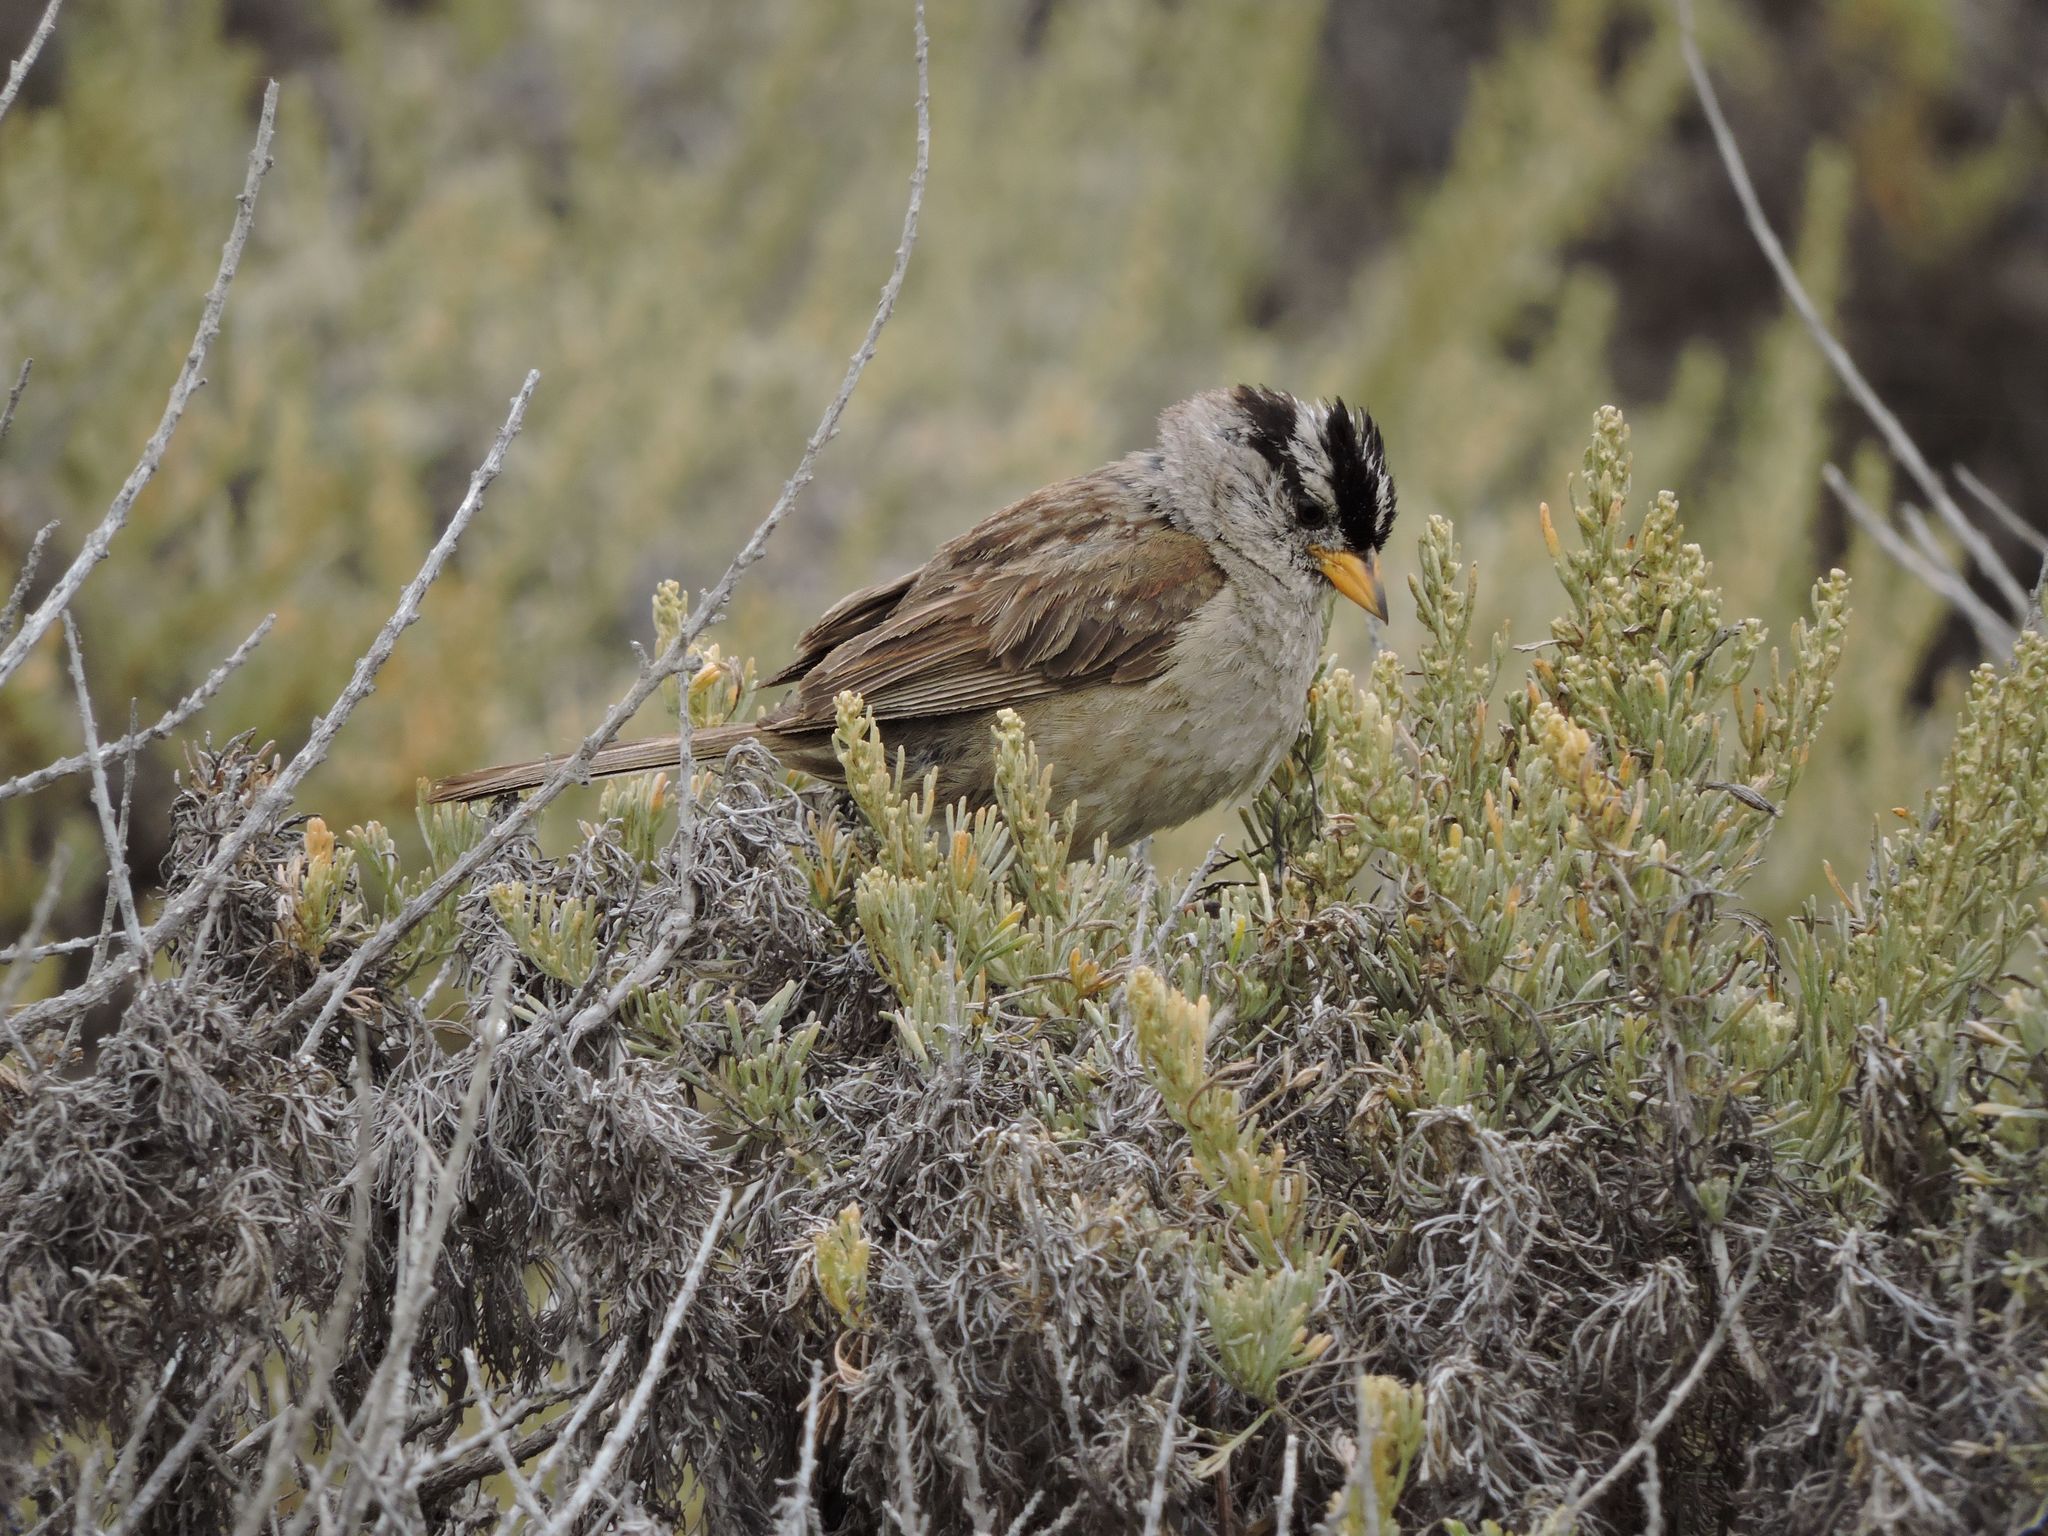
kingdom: Animalia
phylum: Chordata
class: Aves
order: Passeriformes
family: Passerellidae
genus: Zonotrichia
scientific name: Zonotrichia leucophrys
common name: White-crowned sparrow
